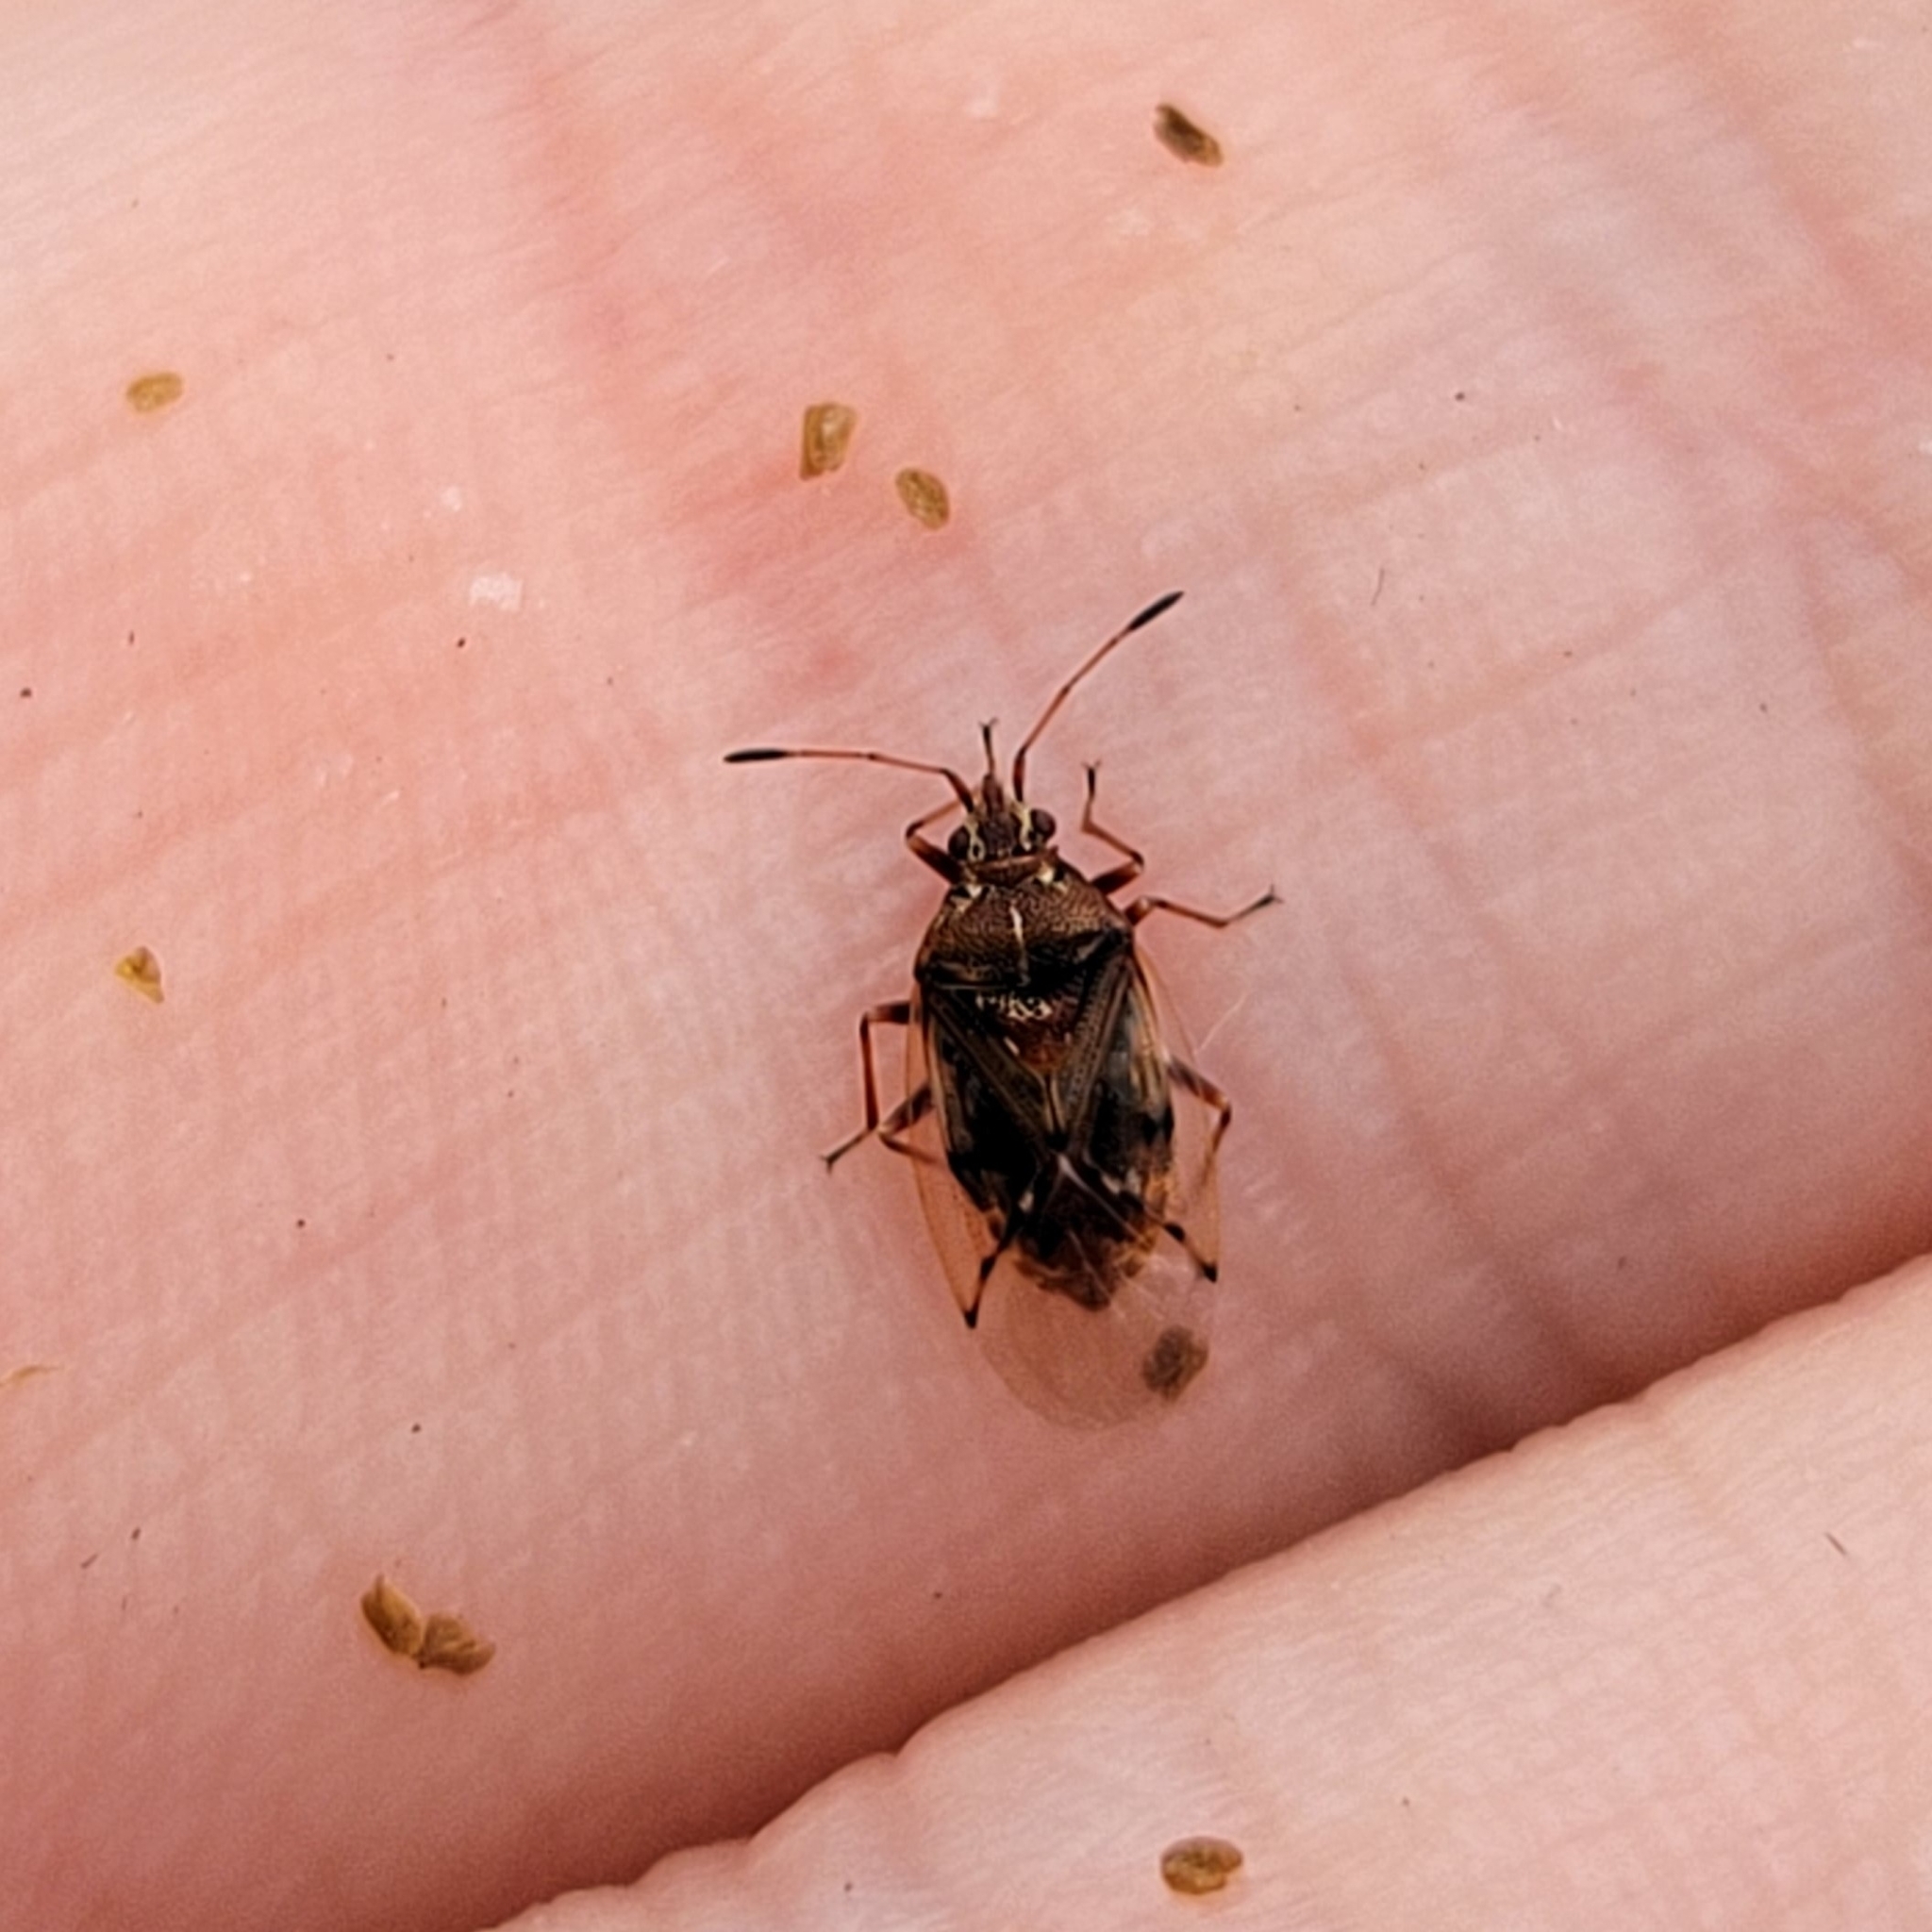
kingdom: Animalia
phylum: Arthropoda
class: Insecta
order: Hemiptera
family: Lygaeidae
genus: Kleidocerys
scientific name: Kleidocerys resedae
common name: Birch catkin bug
